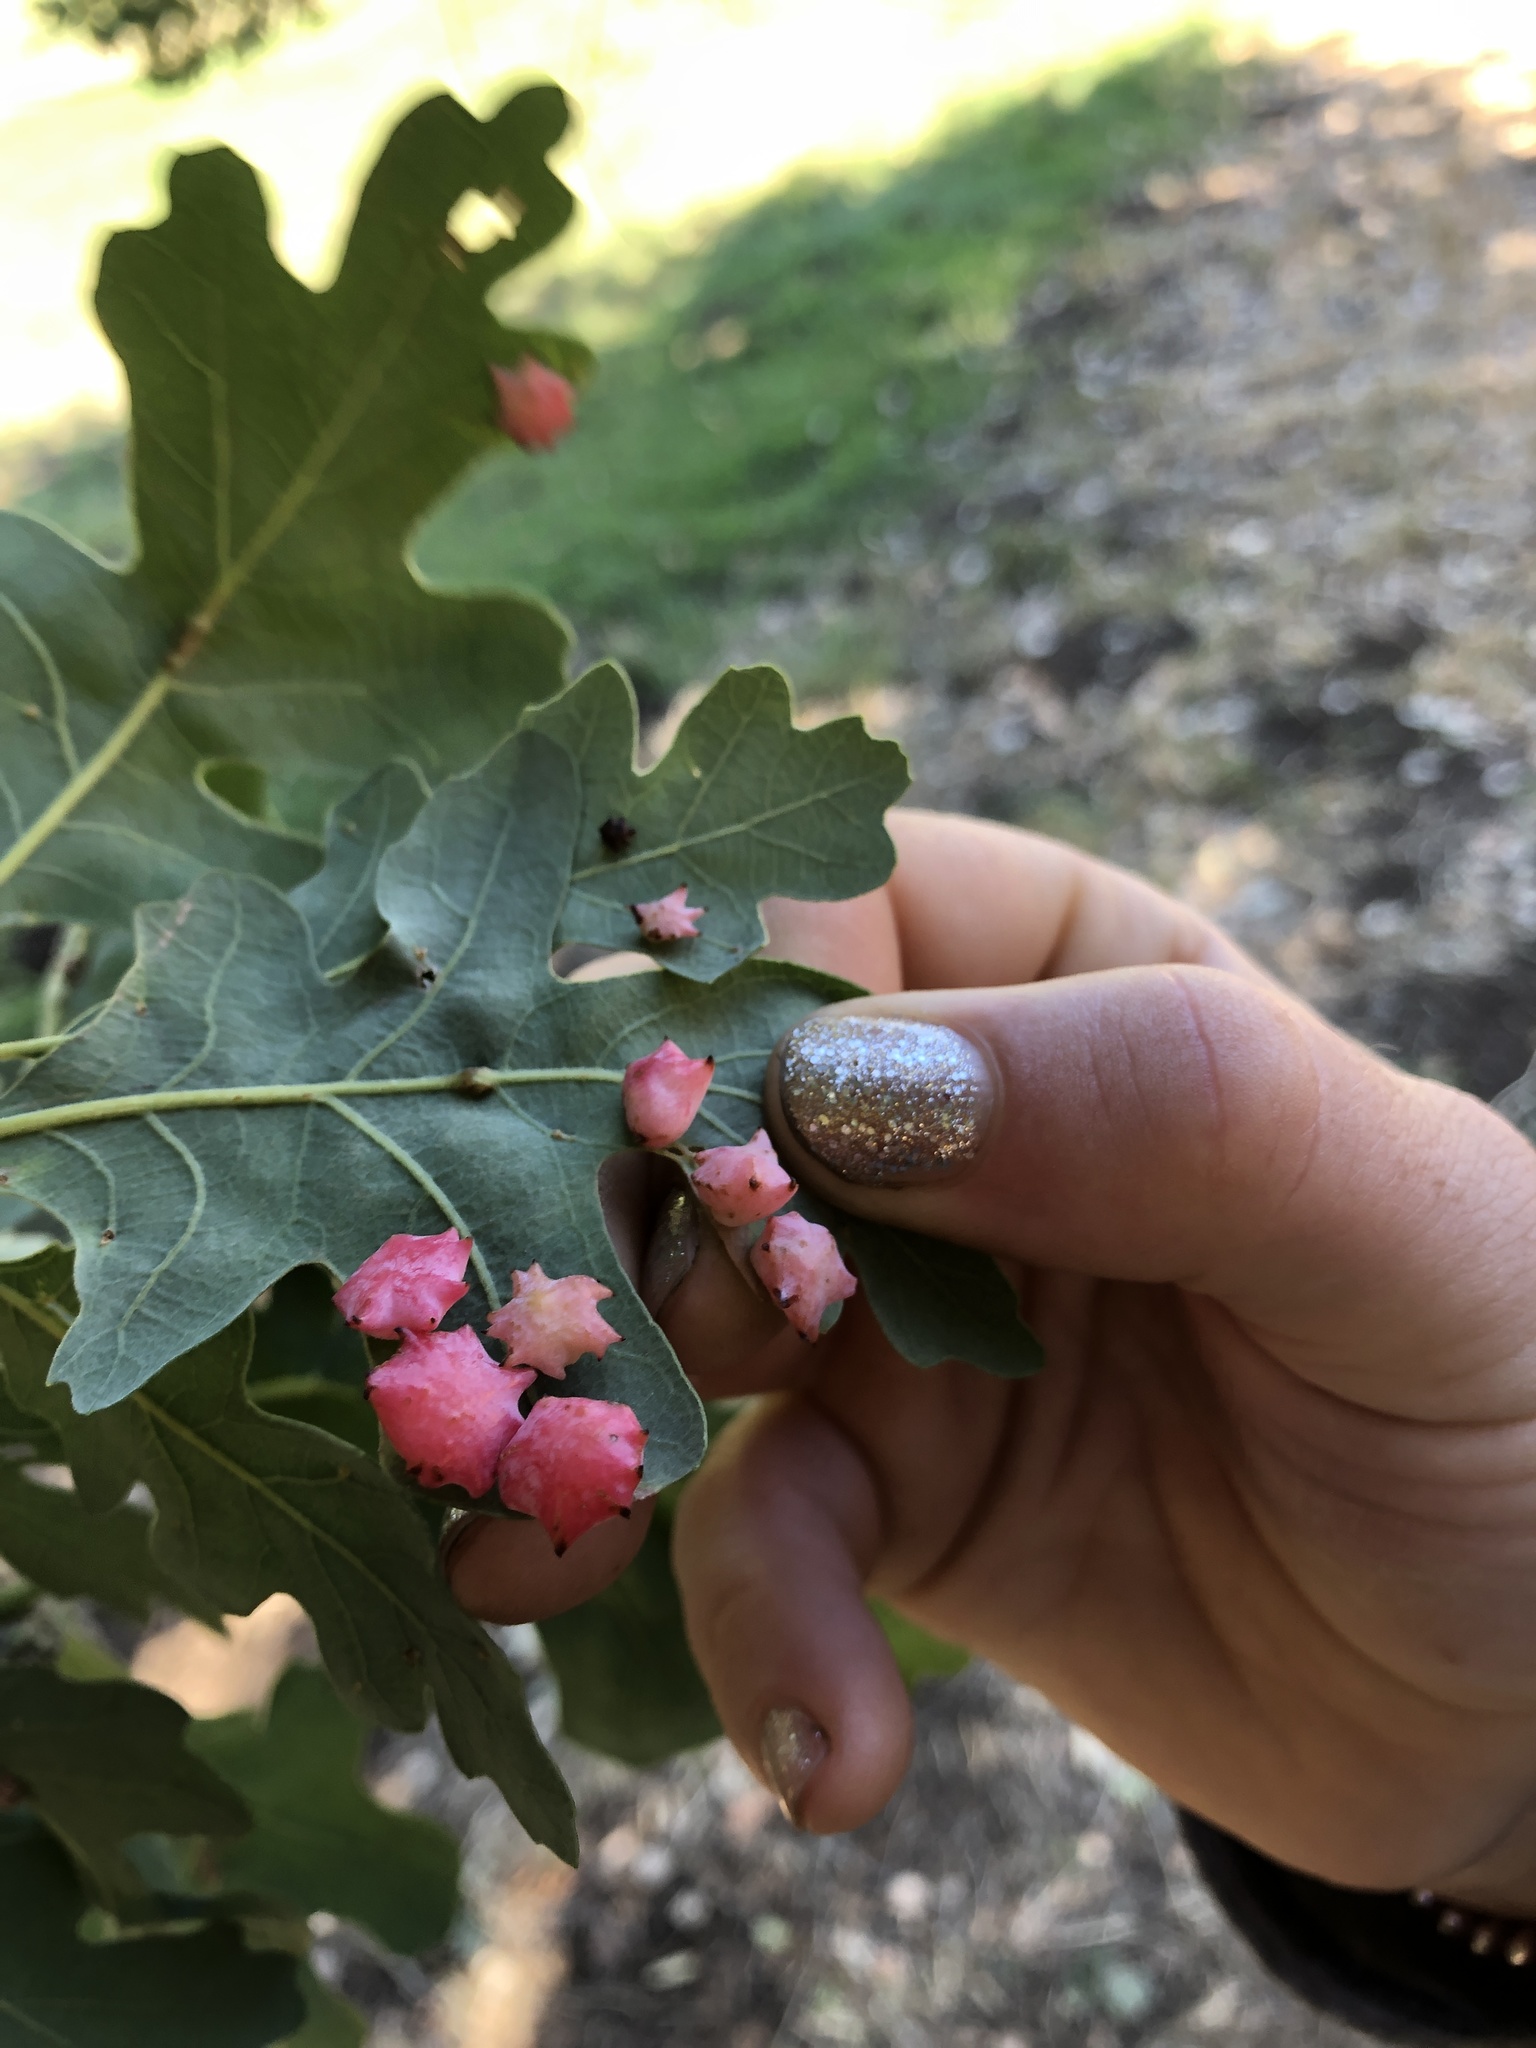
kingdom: Animalia
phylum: Arthropoda
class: Insecta
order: Hymenoptera
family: Cynipidae
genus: Cynips
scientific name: Cynips douglasi
